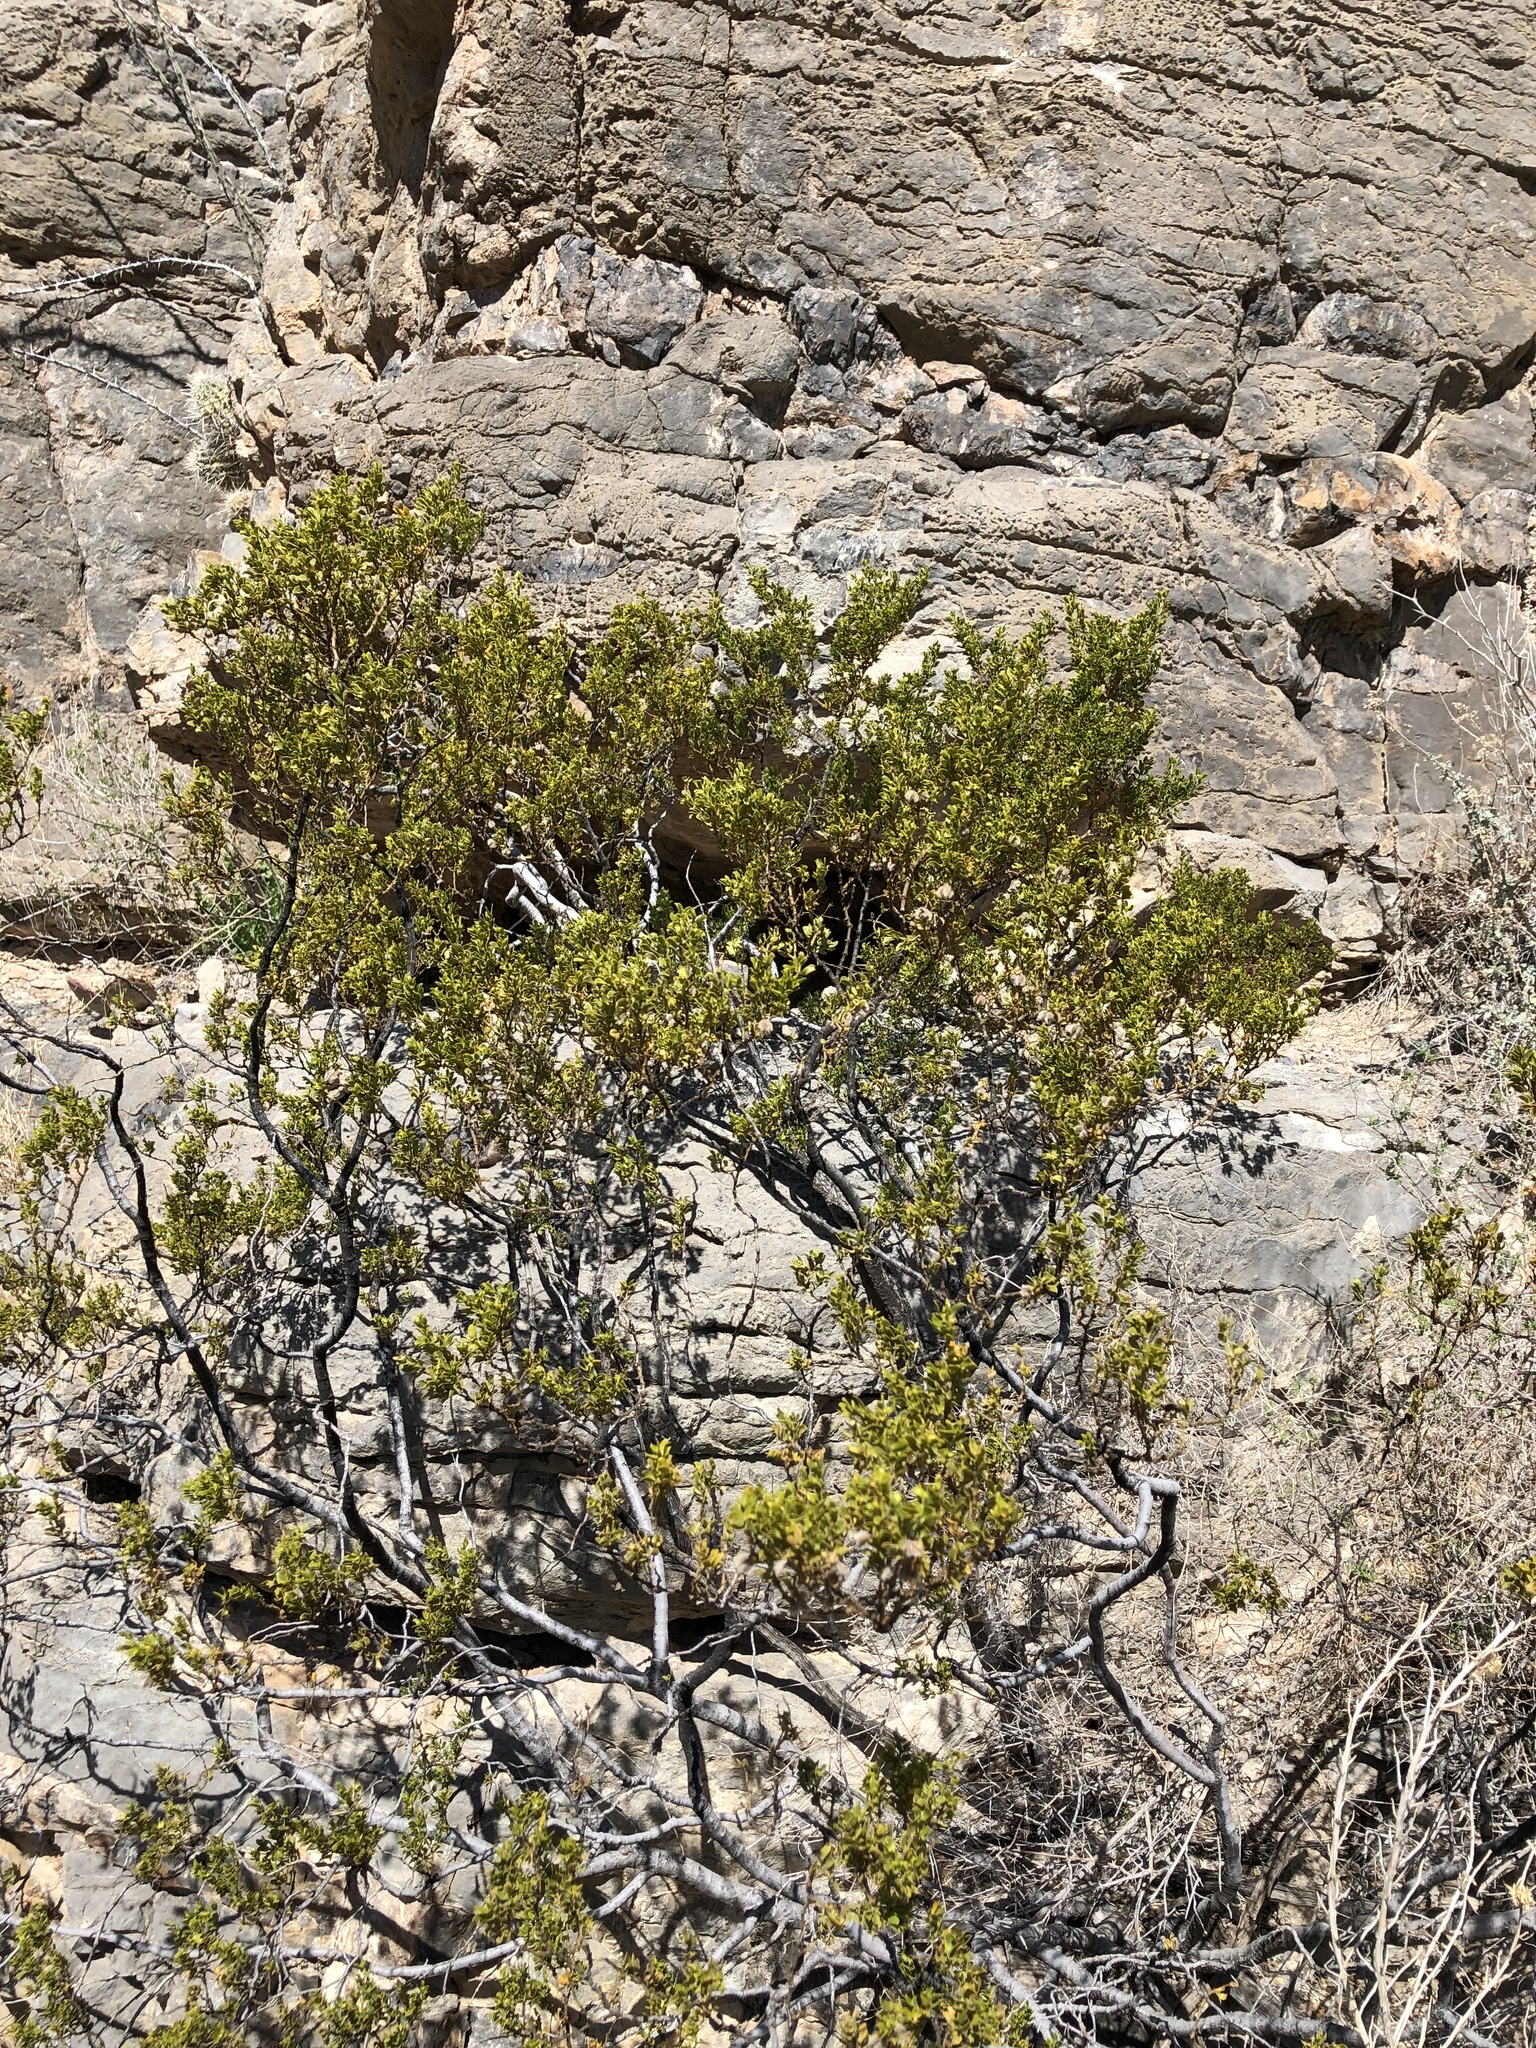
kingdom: Plantae
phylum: Tracheophyta
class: Magnoliopsida
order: Zygophyllales
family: Zygophyllaceae
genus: Larrea
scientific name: Larrea tridentata
